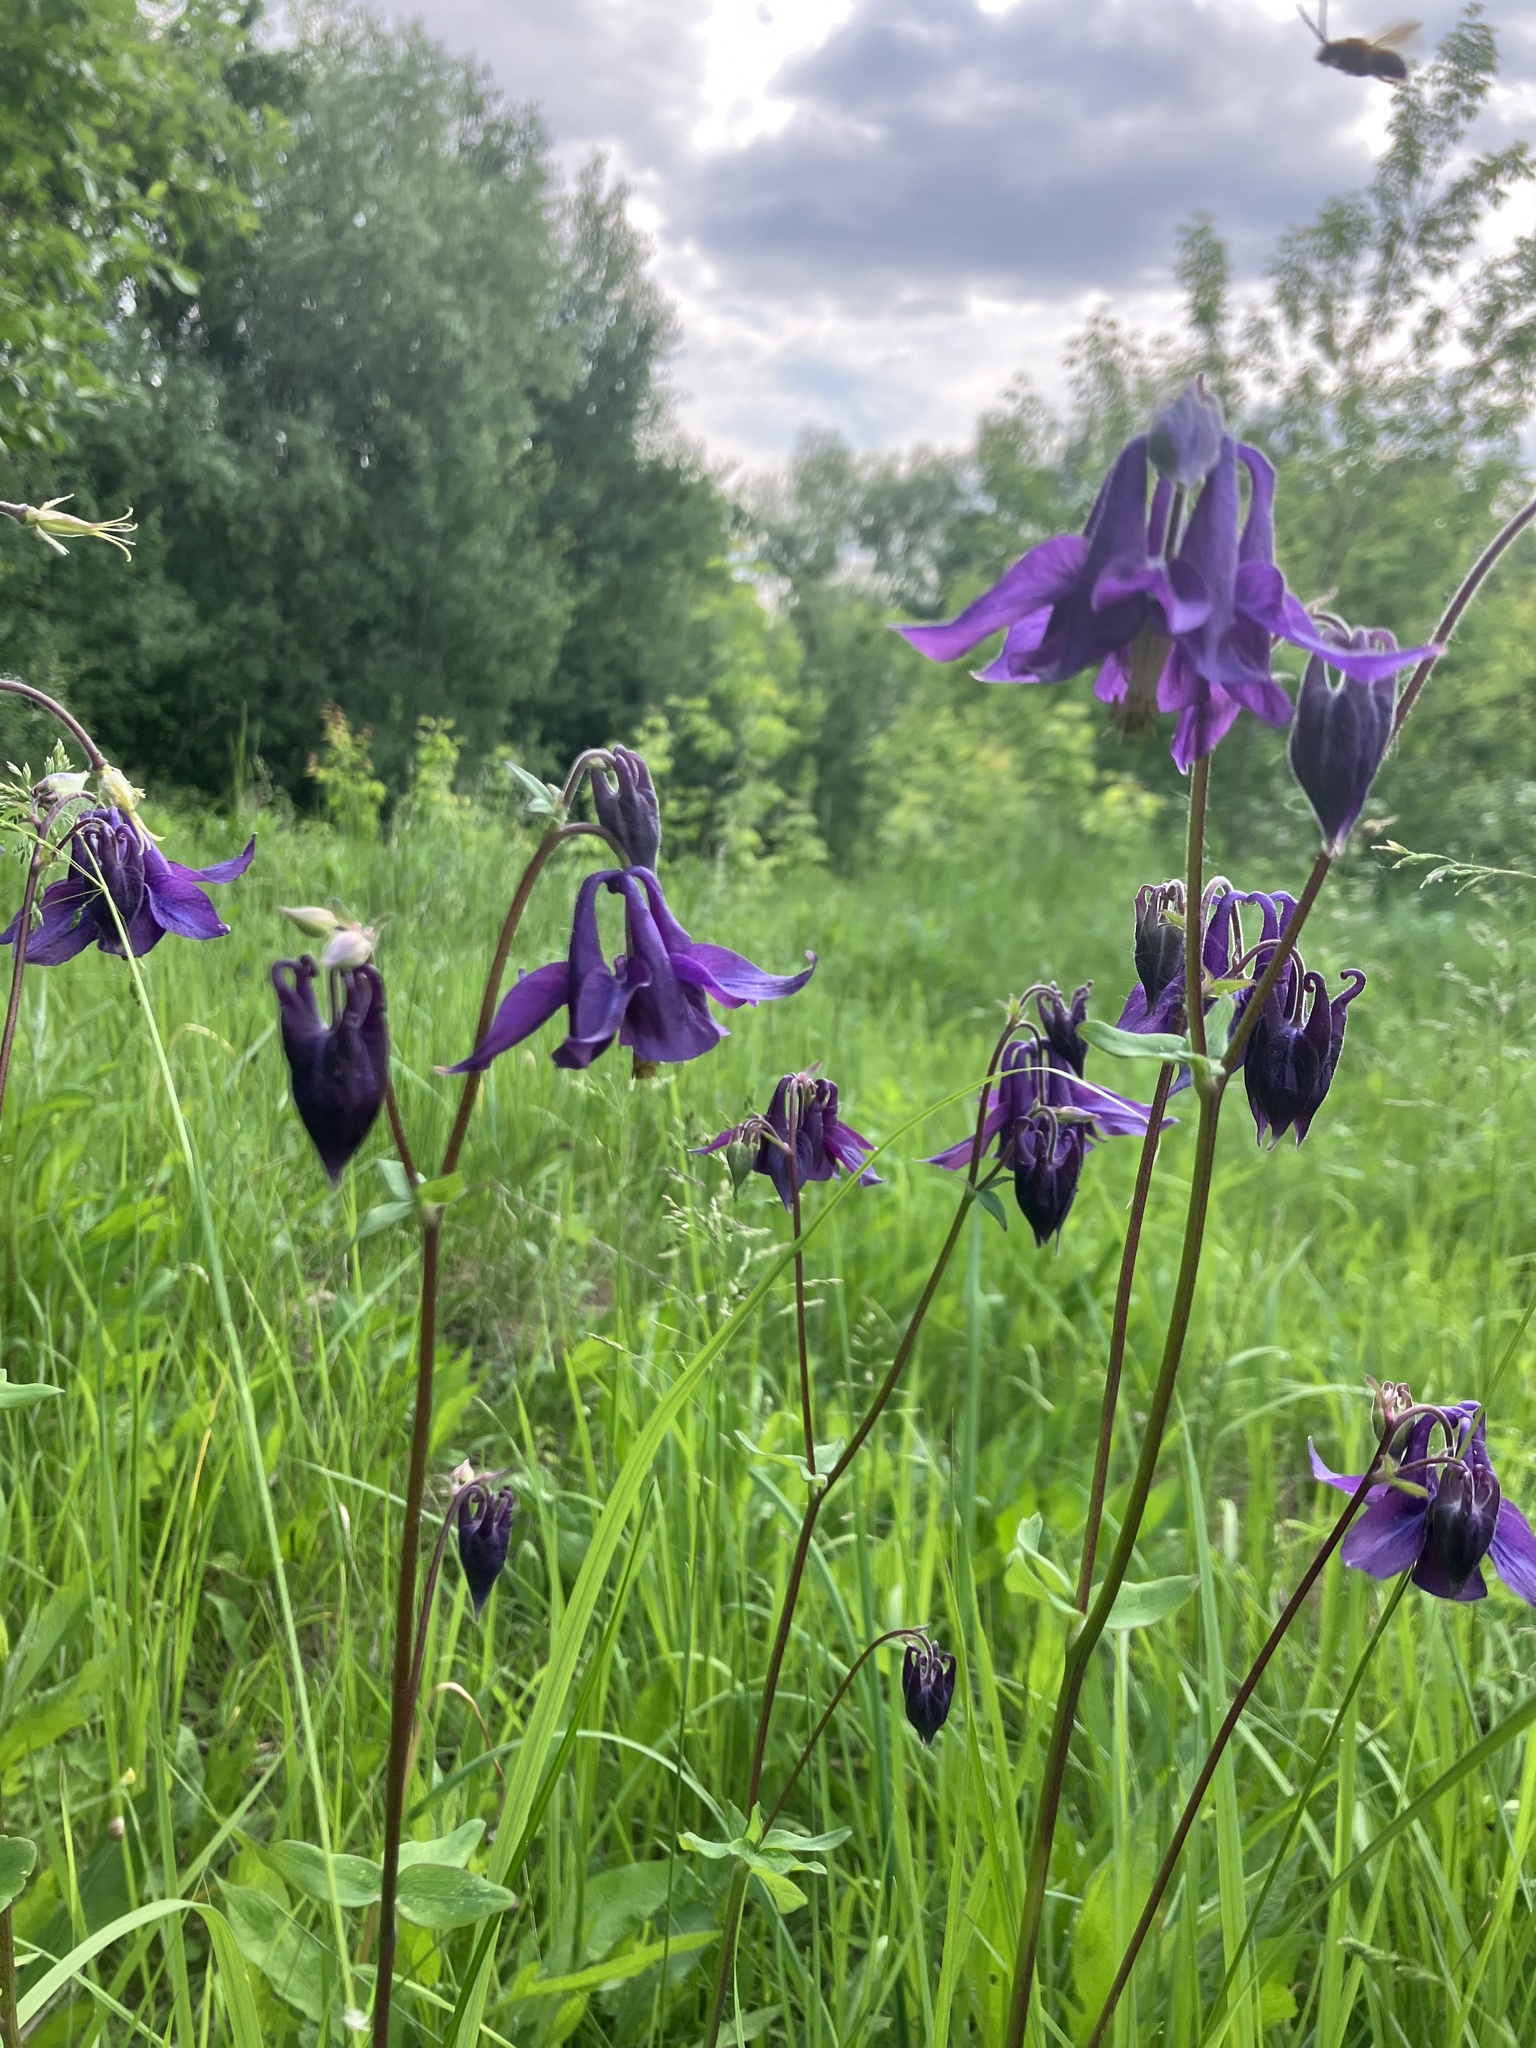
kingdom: Plantae
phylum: Tracheophyta
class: Magnoliopsida
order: Ranunculales
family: Ranunculaceae
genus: Aquilegia
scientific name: Aquilegia vulgaris
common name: Columbine
